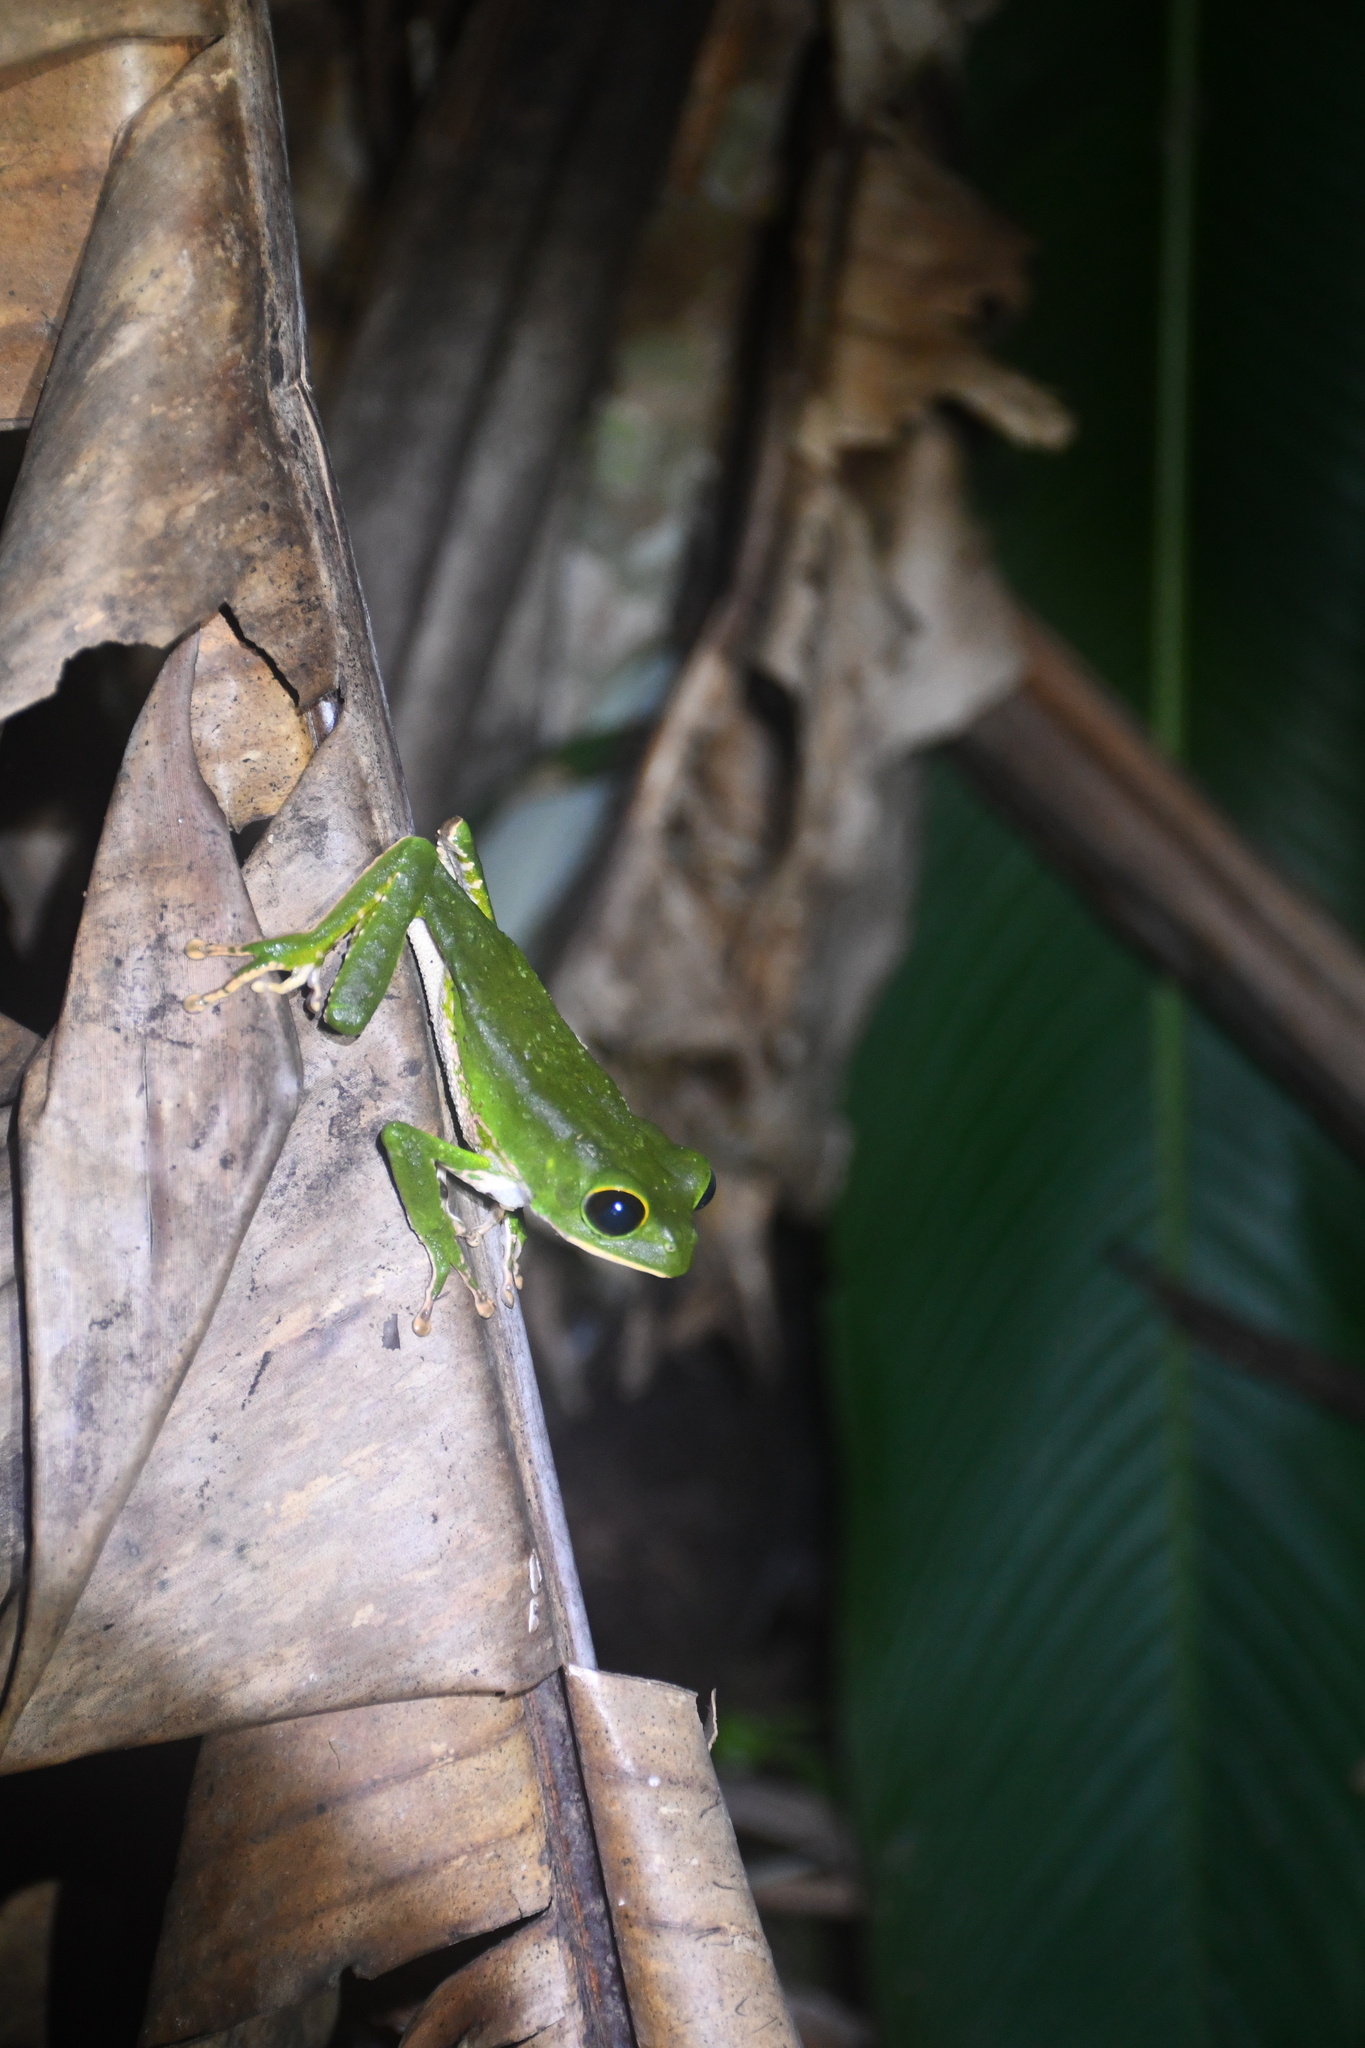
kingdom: Animalia
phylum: Chordata
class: Amphibia
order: Anura
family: Phyllomedusidae
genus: Phyllomedusa
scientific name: Phyllomedusa camba
